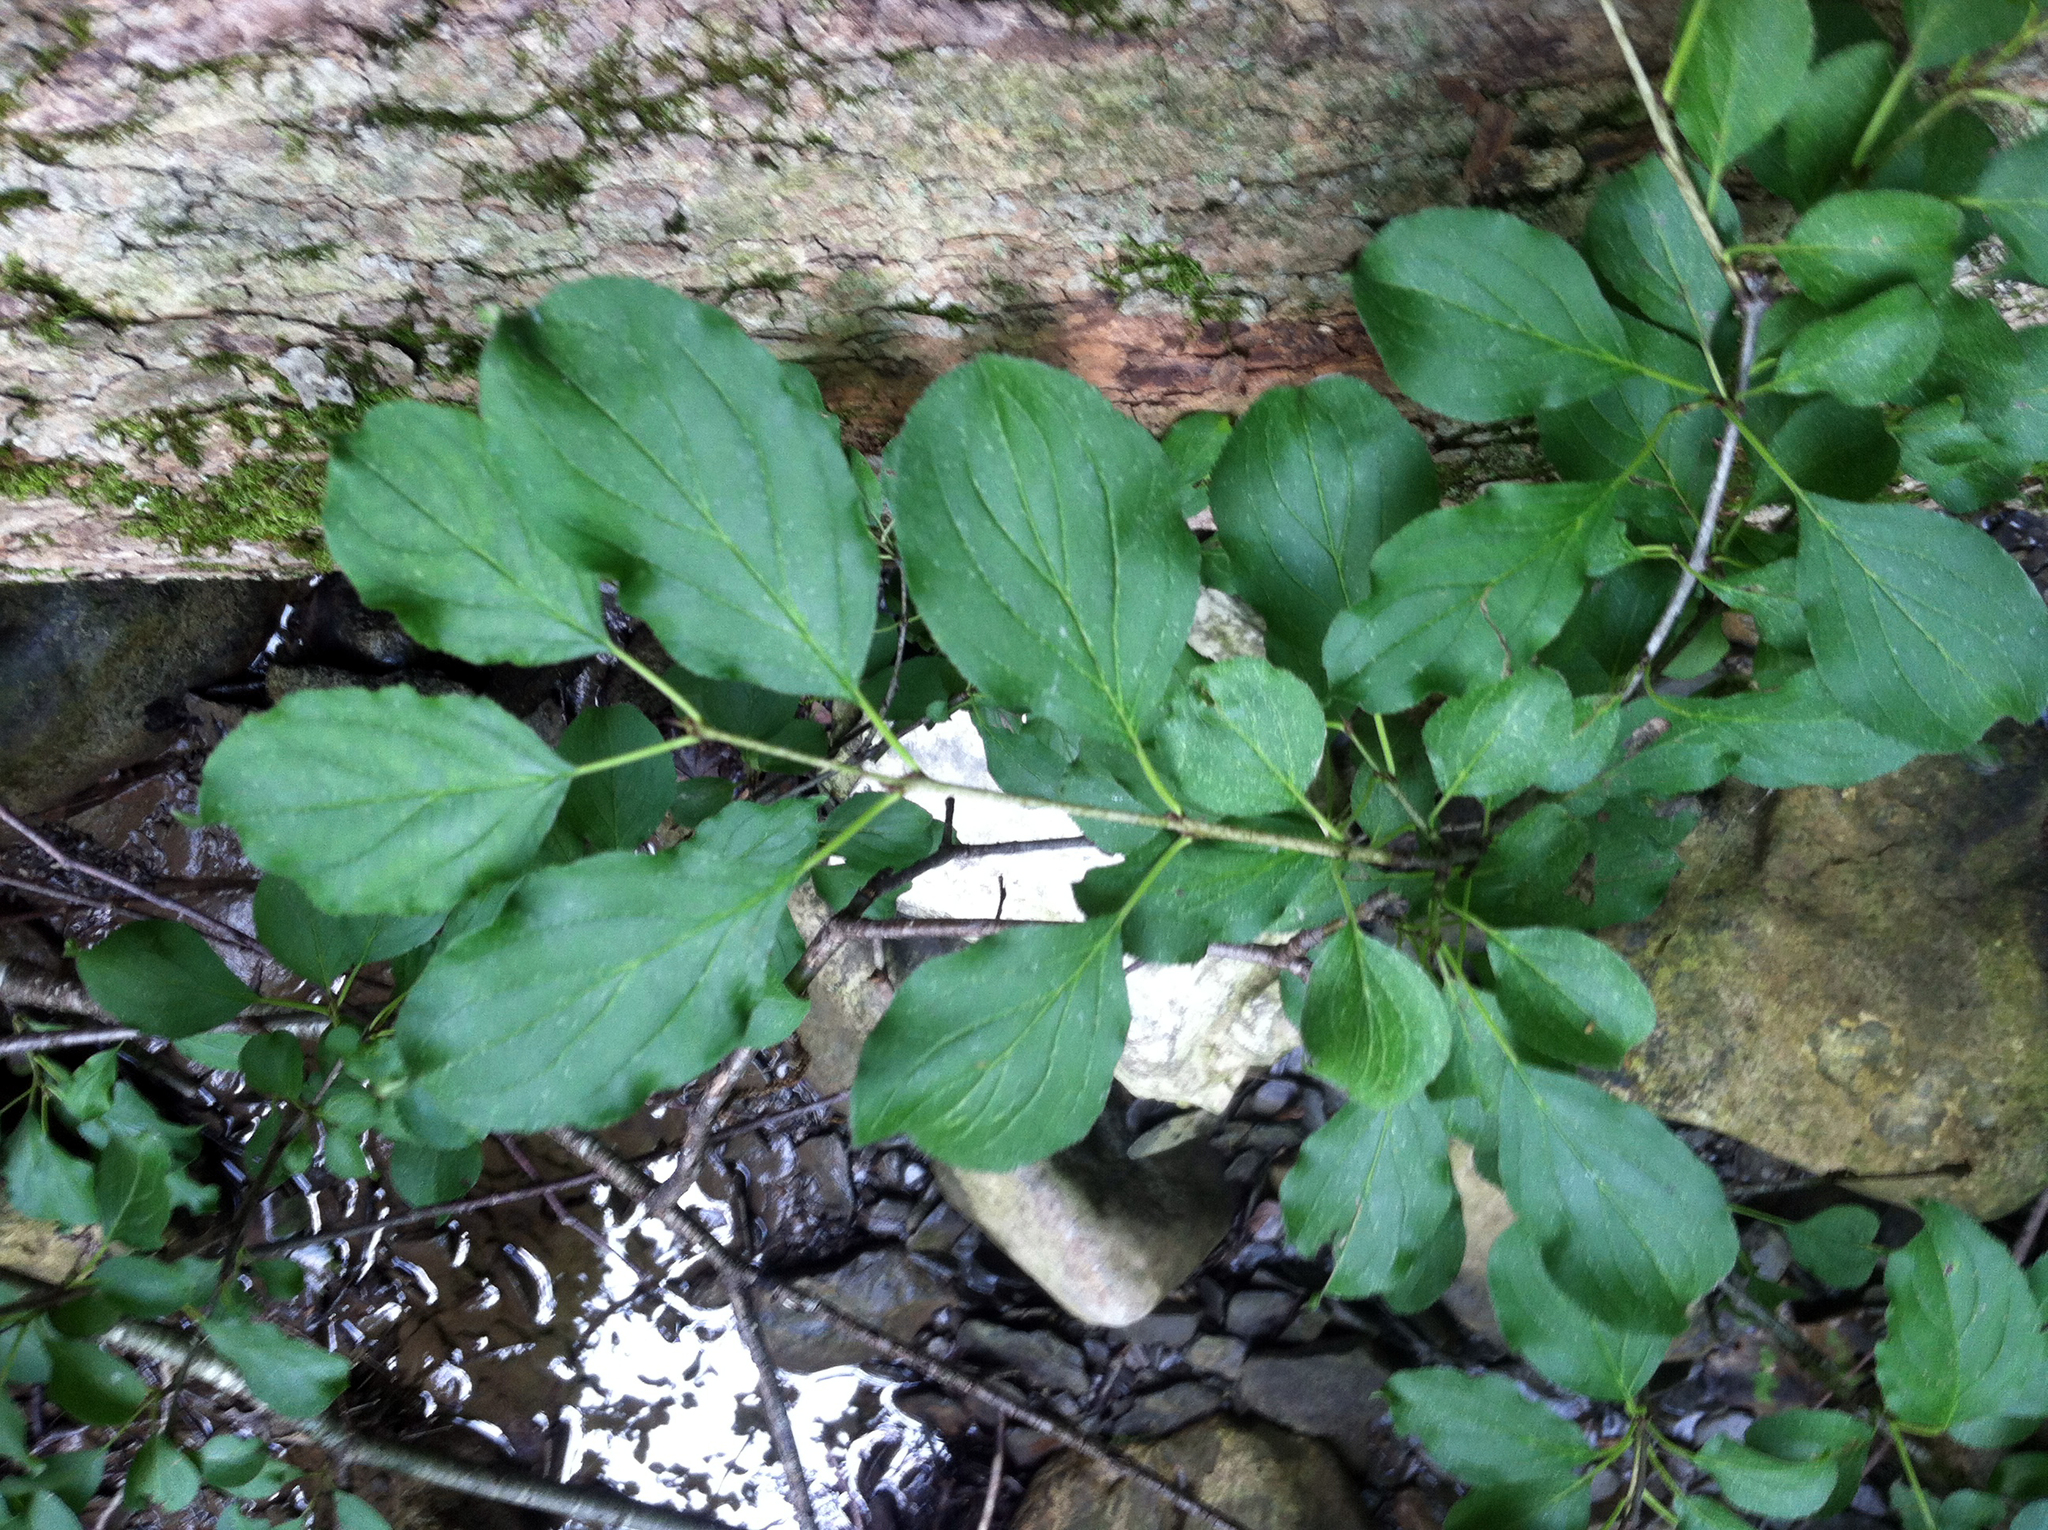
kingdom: Plantae
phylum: Tracheophyta
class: Magnoliopsida
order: Rosales
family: Rhamnaceae
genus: Rhamnus
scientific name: Rhamnus cathartica
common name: Common buckthorn
